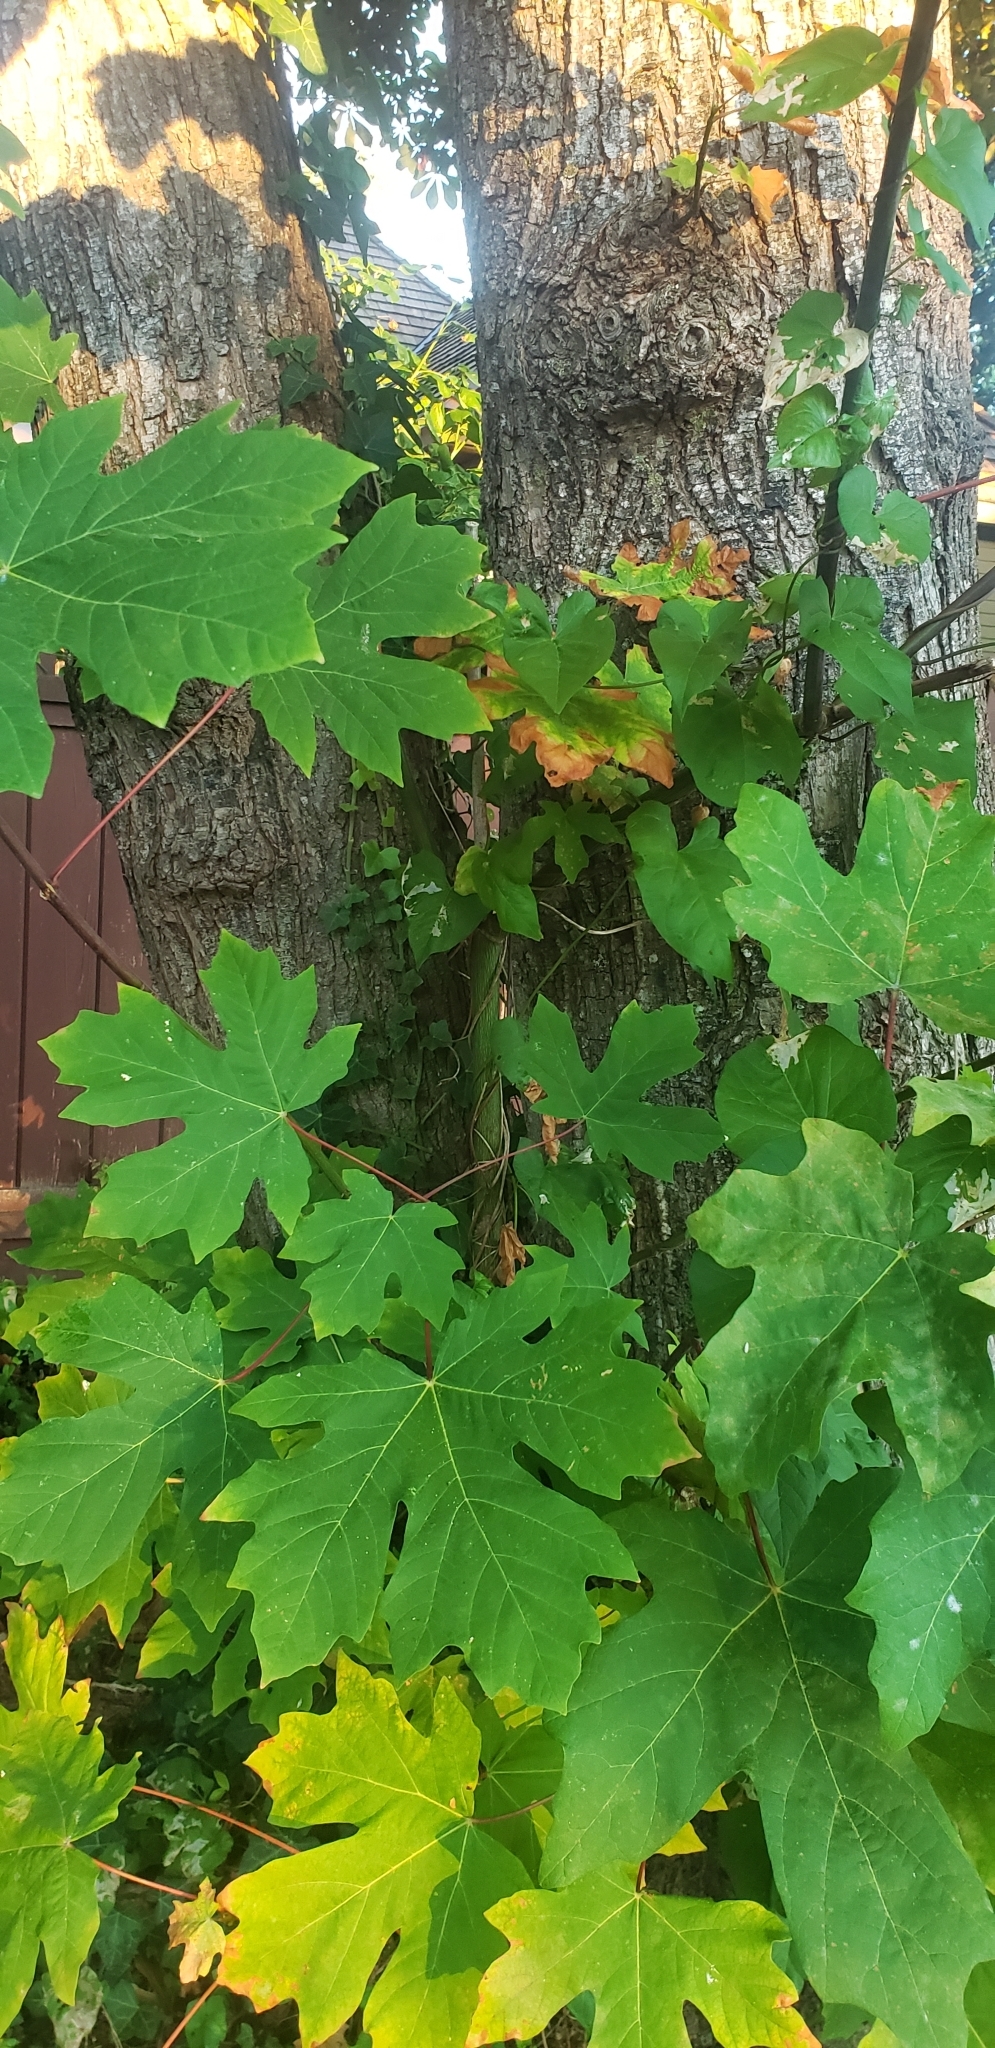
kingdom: Plantae
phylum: Tracheophyta
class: Magnoliopsida
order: Sapindales
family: Sapindaceae
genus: Acer
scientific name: Acer macrophyllum
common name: Oregon maple
